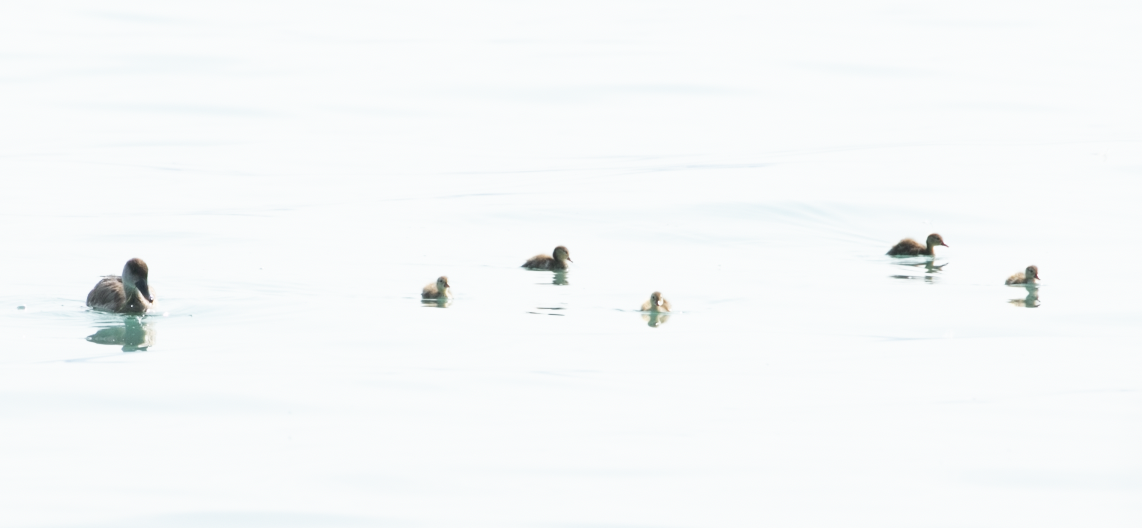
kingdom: Animalia
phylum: Chordata
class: Aves
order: Anseriformes
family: Anatidae
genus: Netta
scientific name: Netta rufina
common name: Red-crested pochard
